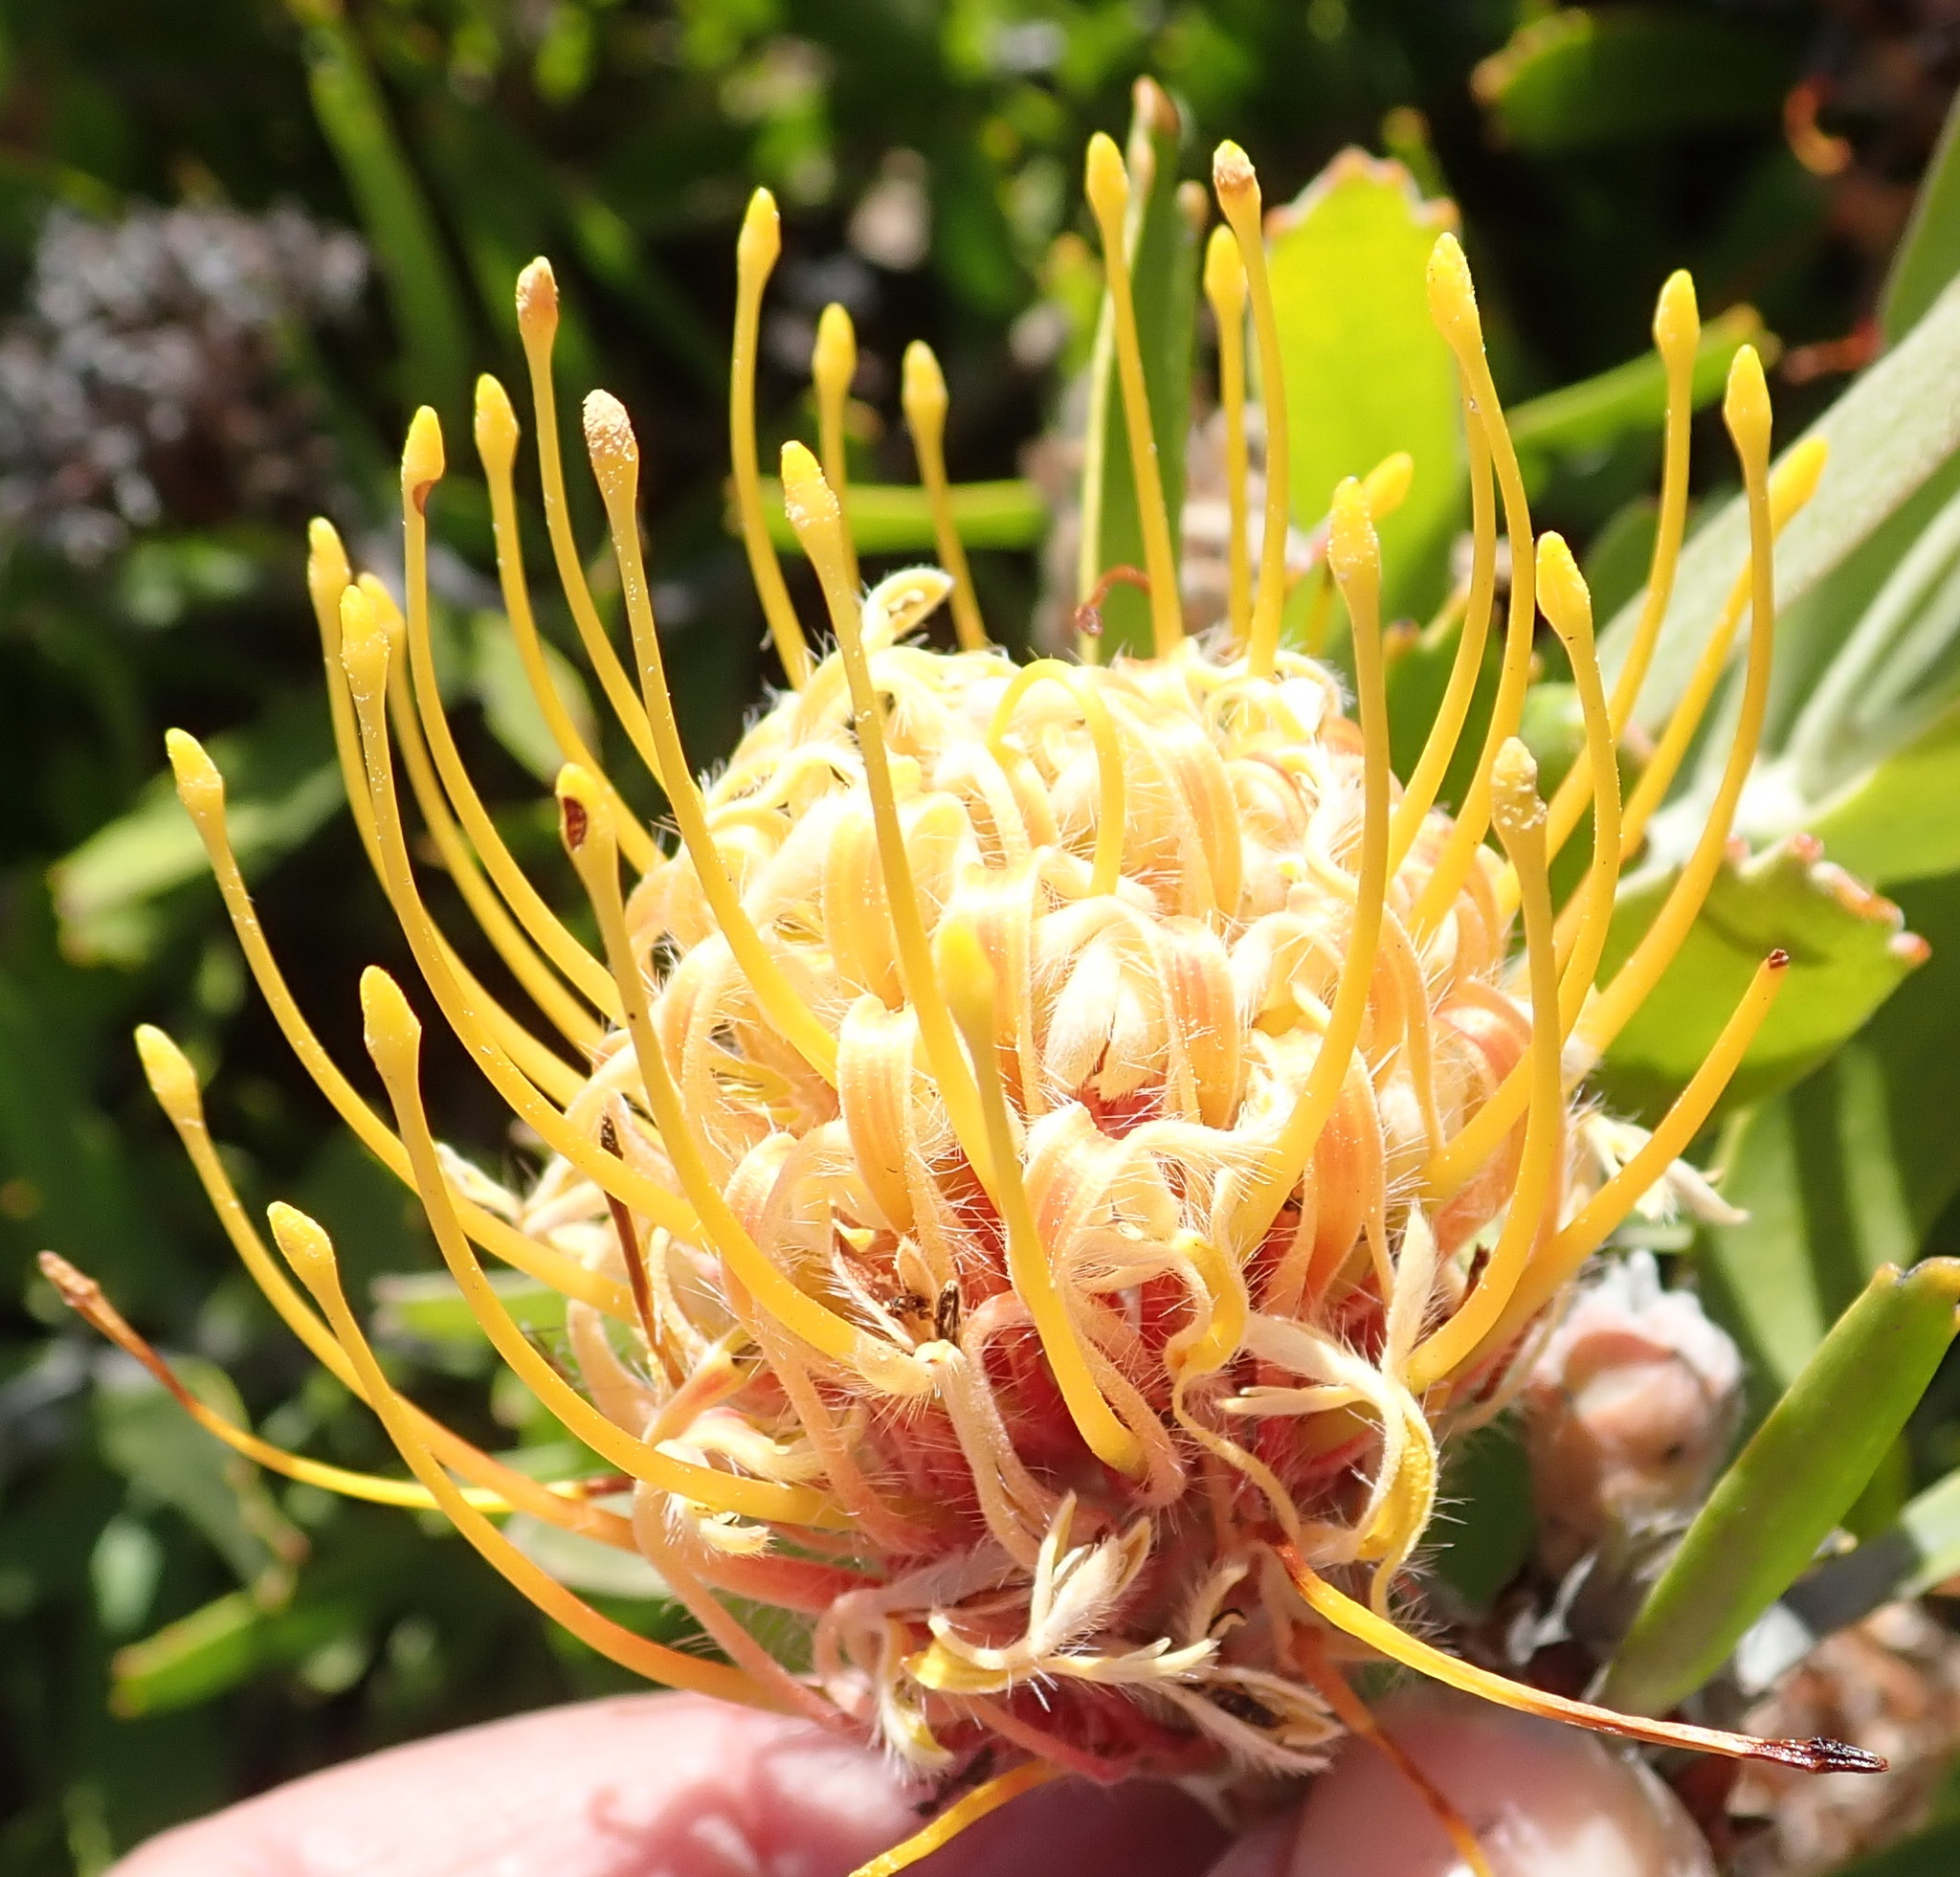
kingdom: Plantae
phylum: Tracheophyta
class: Magnoliopsida
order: Proteales
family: Proteaceae
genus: Leucospermum
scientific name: Leucospermum cuneiforme
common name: Common pincushion
